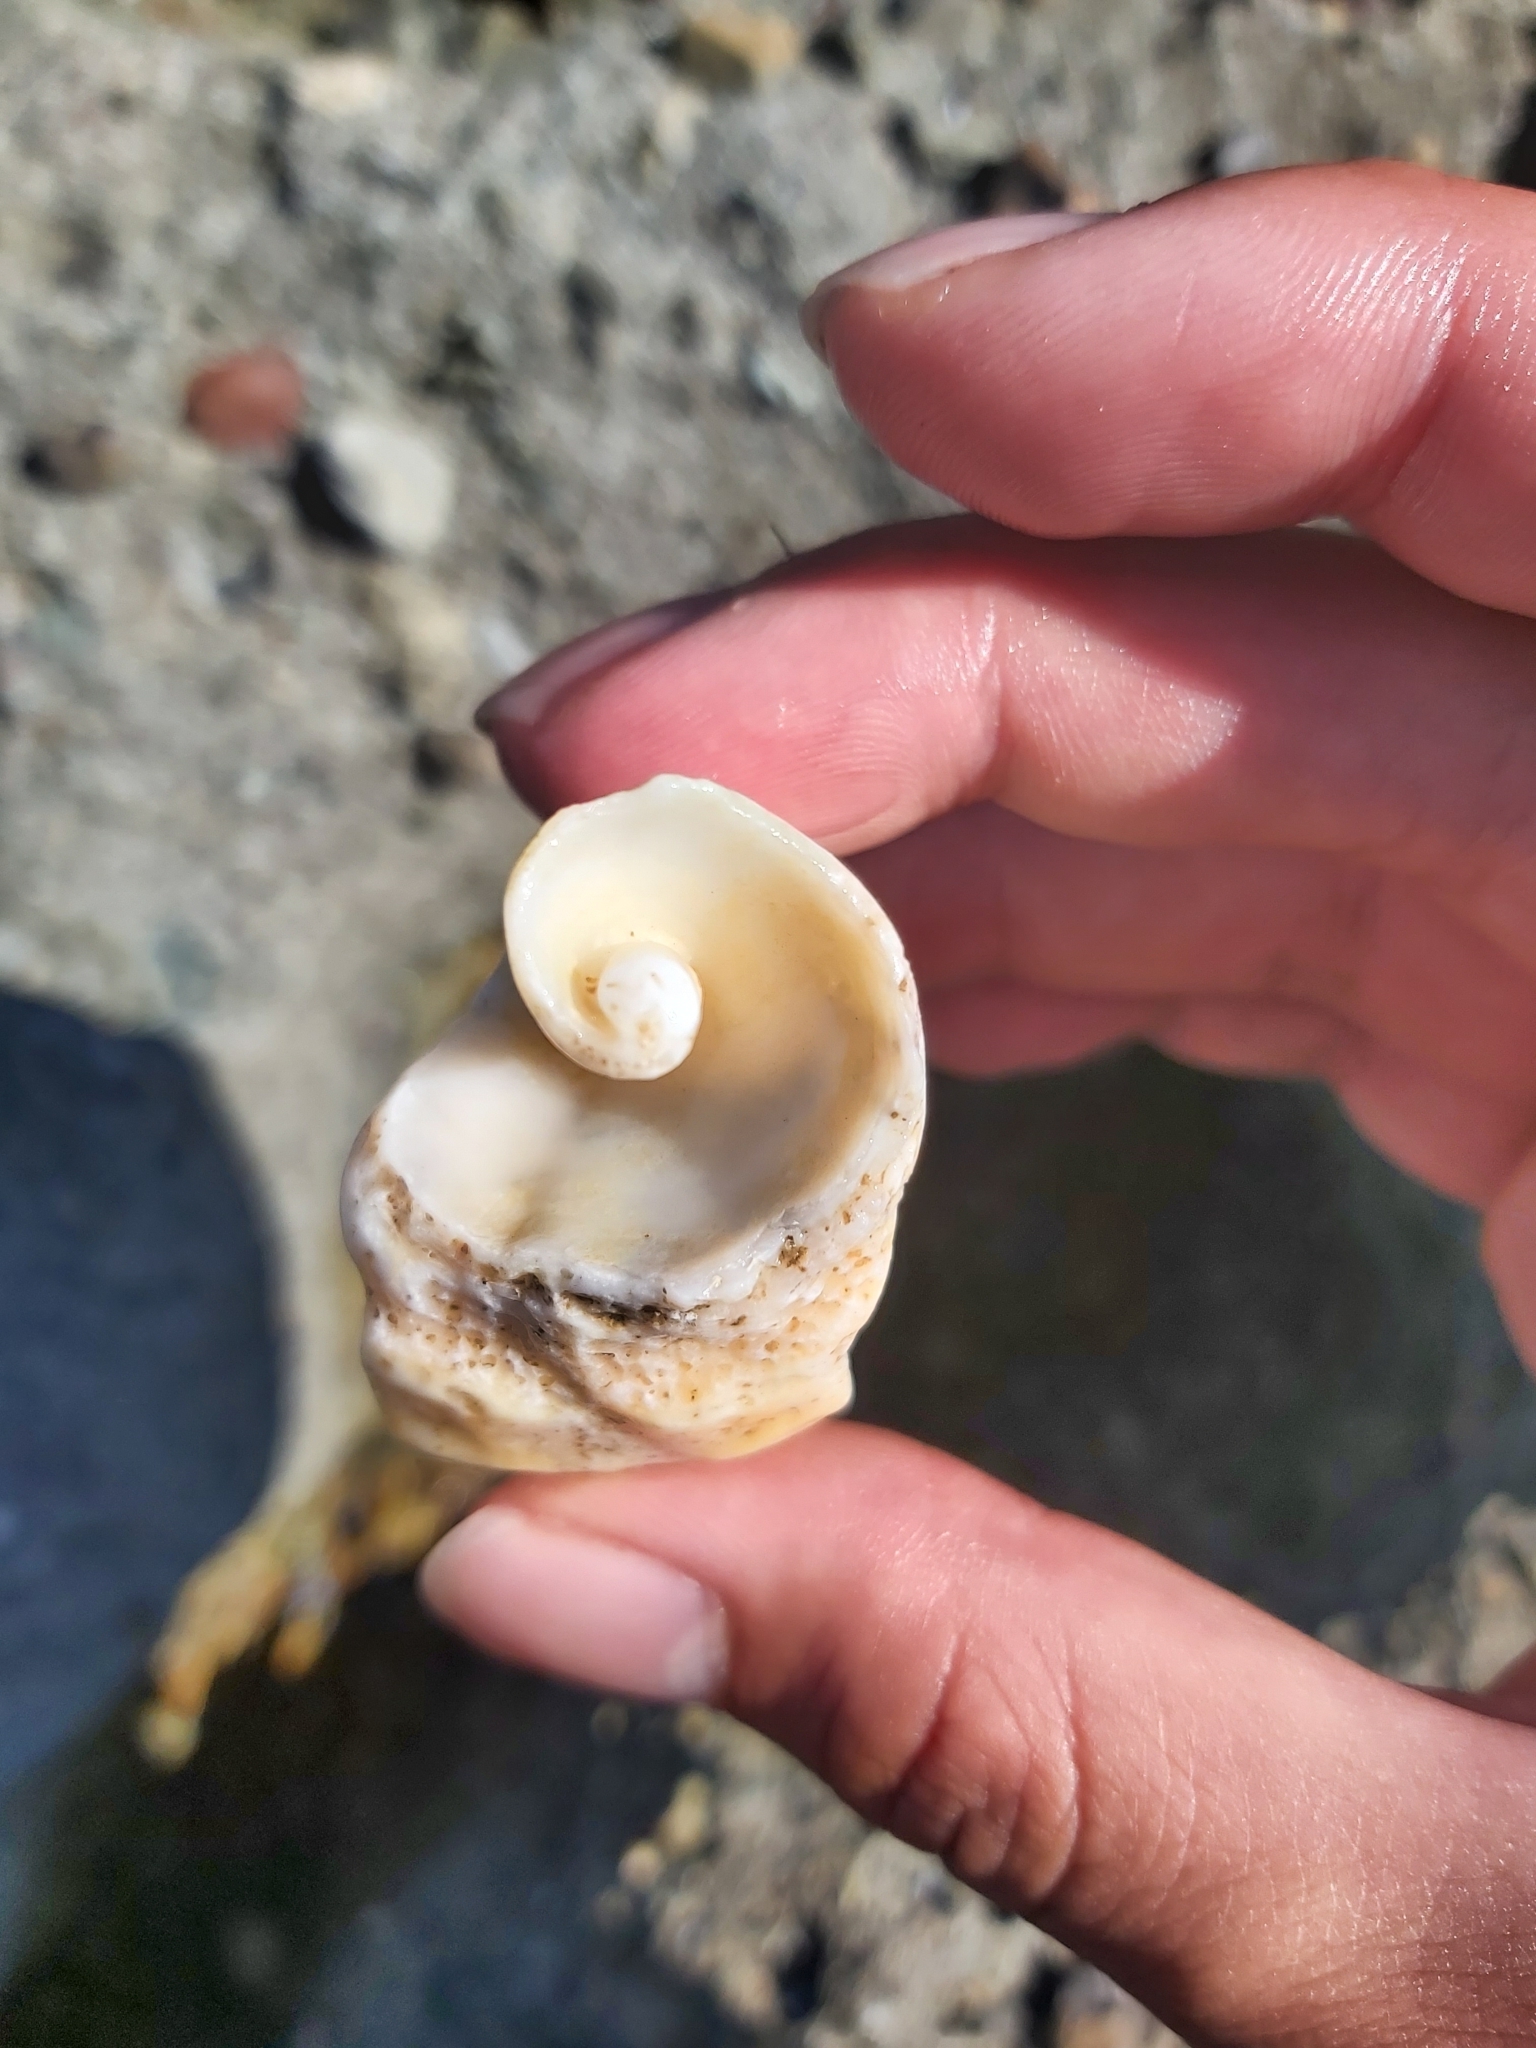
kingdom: Animalia
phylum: Mollusca
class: Gastropoda
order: Neogastropoda
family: Muricidae
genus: Dicathais
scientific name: Dicathais orbita
